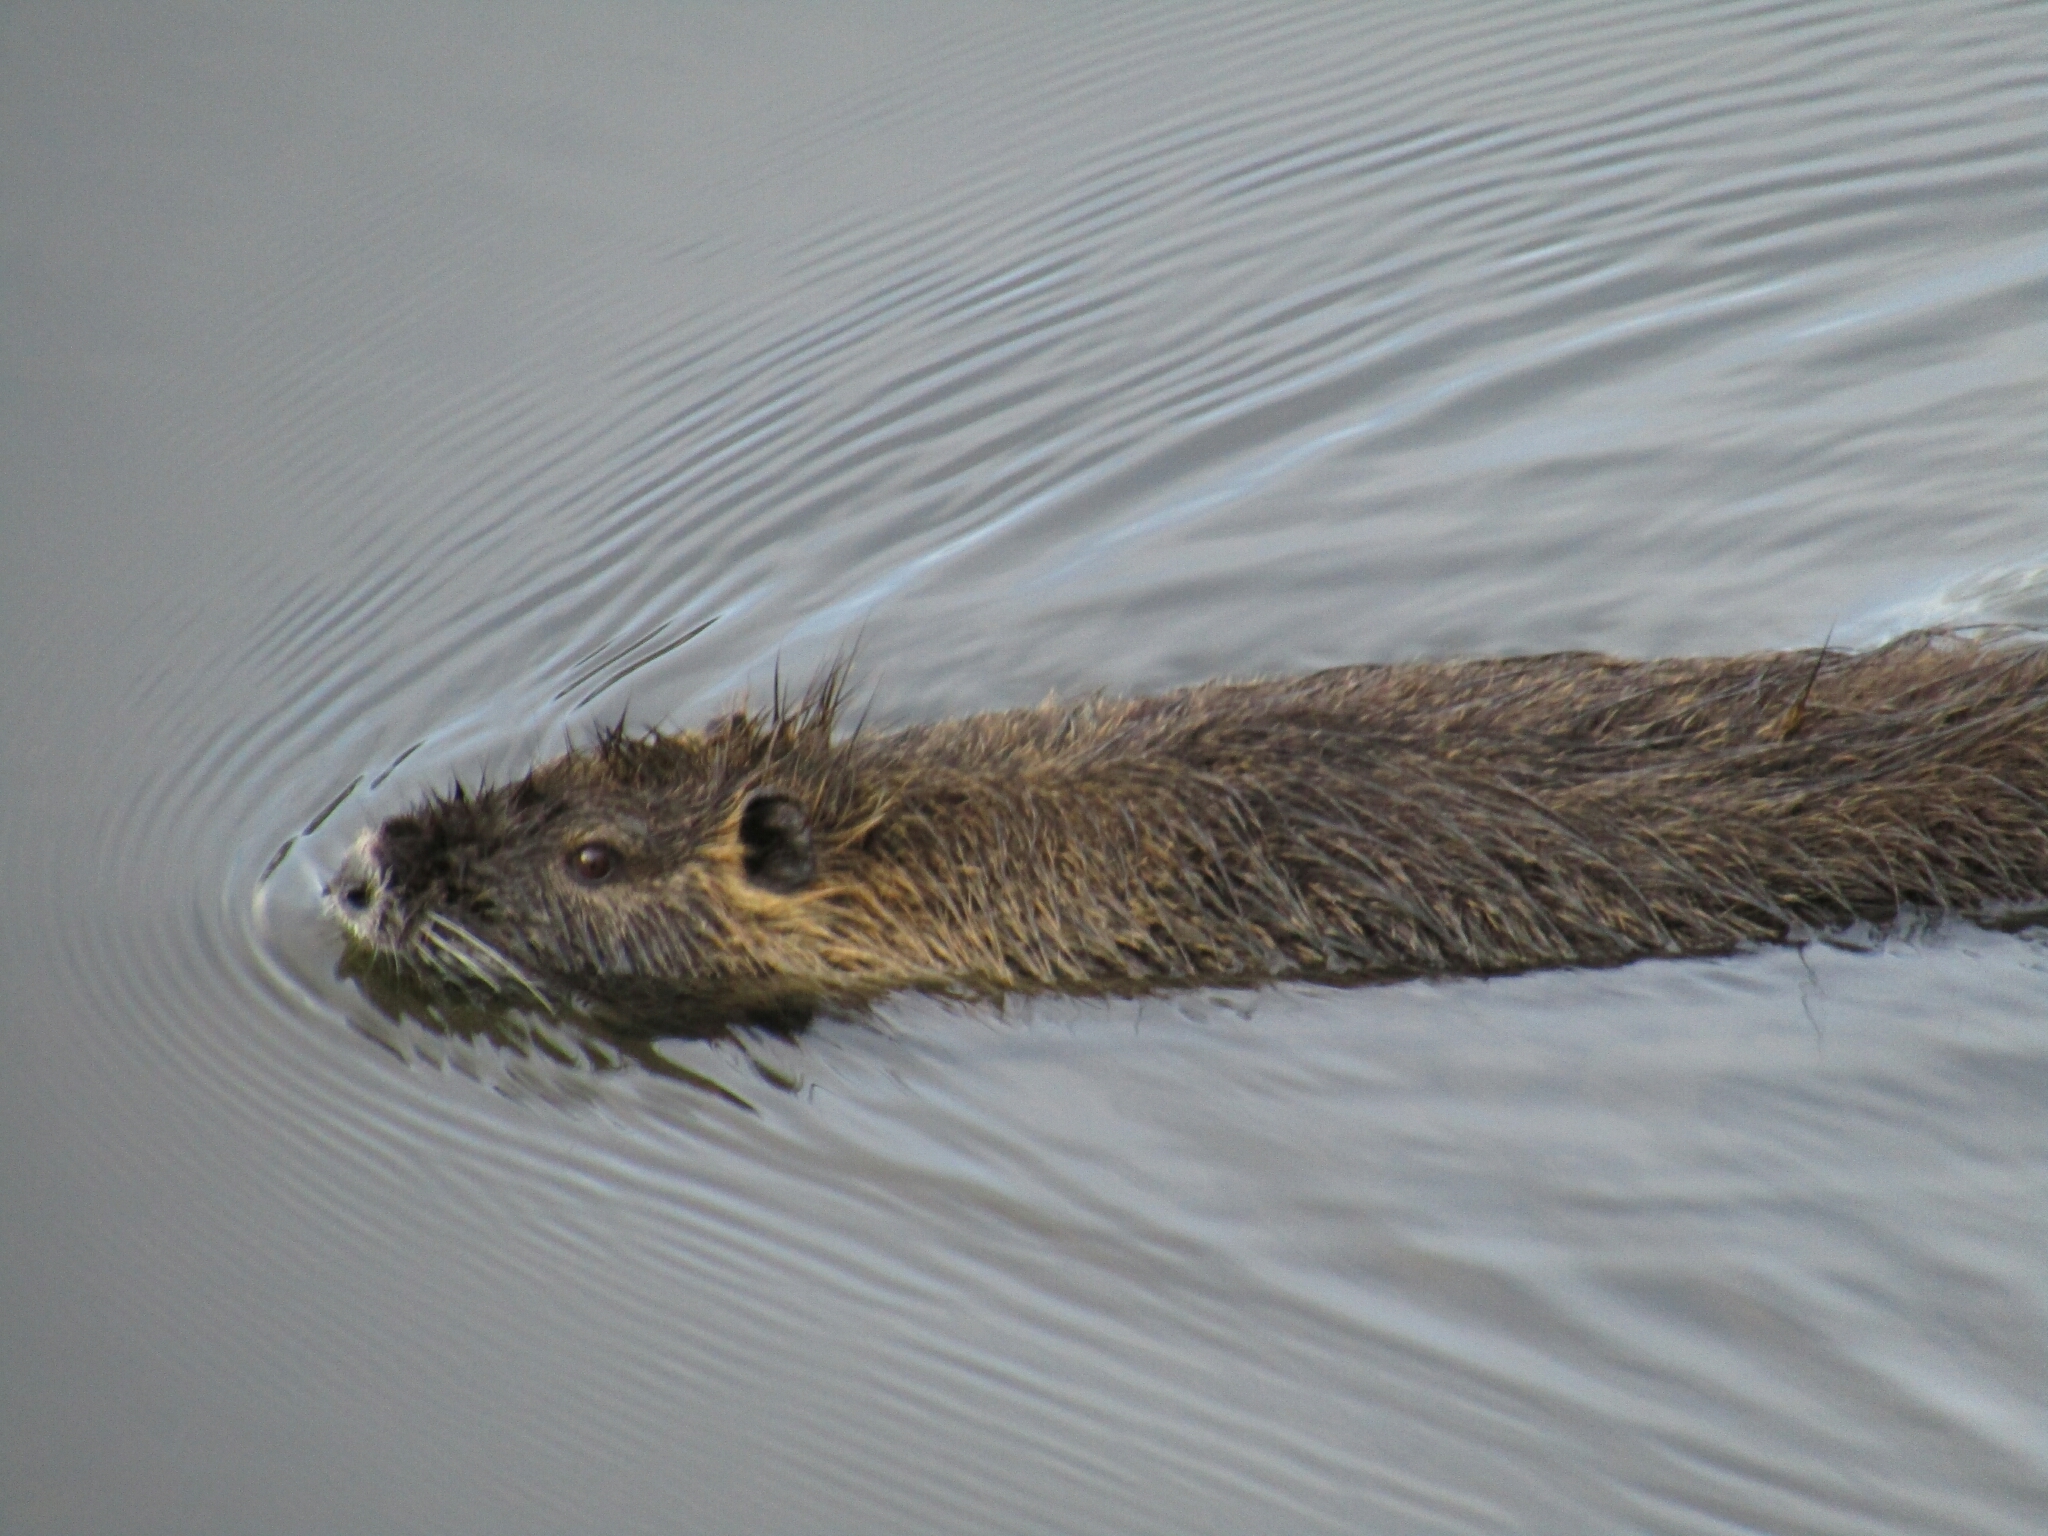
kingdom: Animalia
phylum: Chordata
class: Mammalia
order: Rodentia
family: Myocastoridae
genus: Myocastor
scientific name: Myocastor coypus
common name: Coypu
